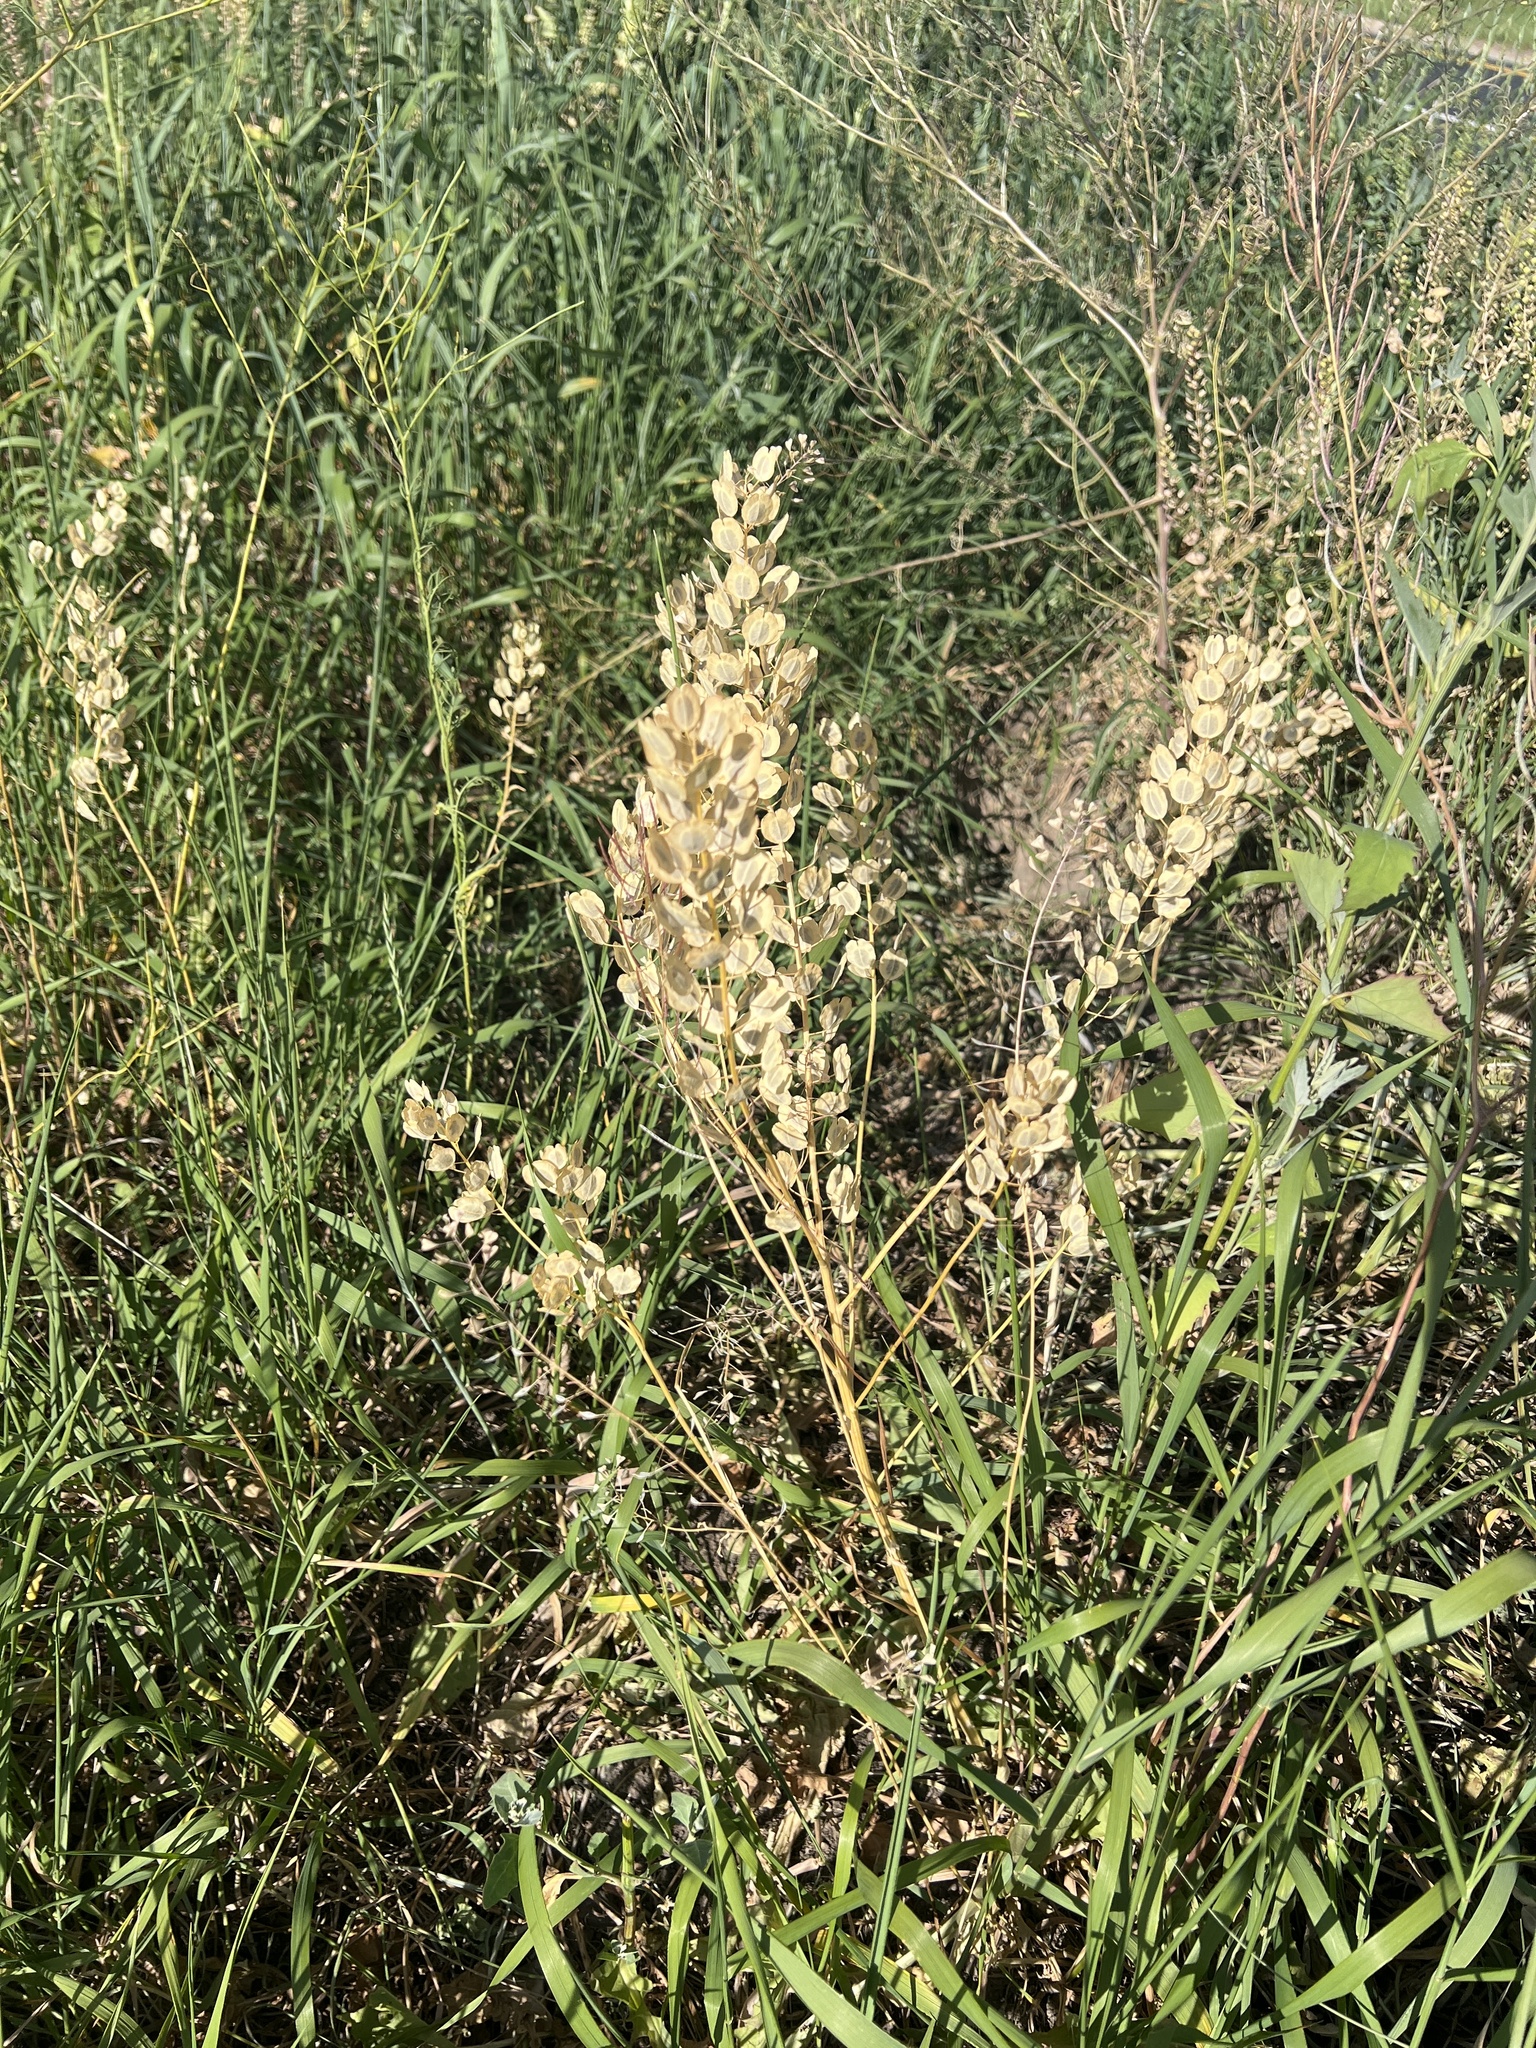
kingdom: Plantae
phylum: Tracheophyta
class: Magnoliopsida
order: Brassicales
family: Brassicaceae
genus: Thlaspi
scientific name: Thlaspi arvense
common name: Field pennycress
